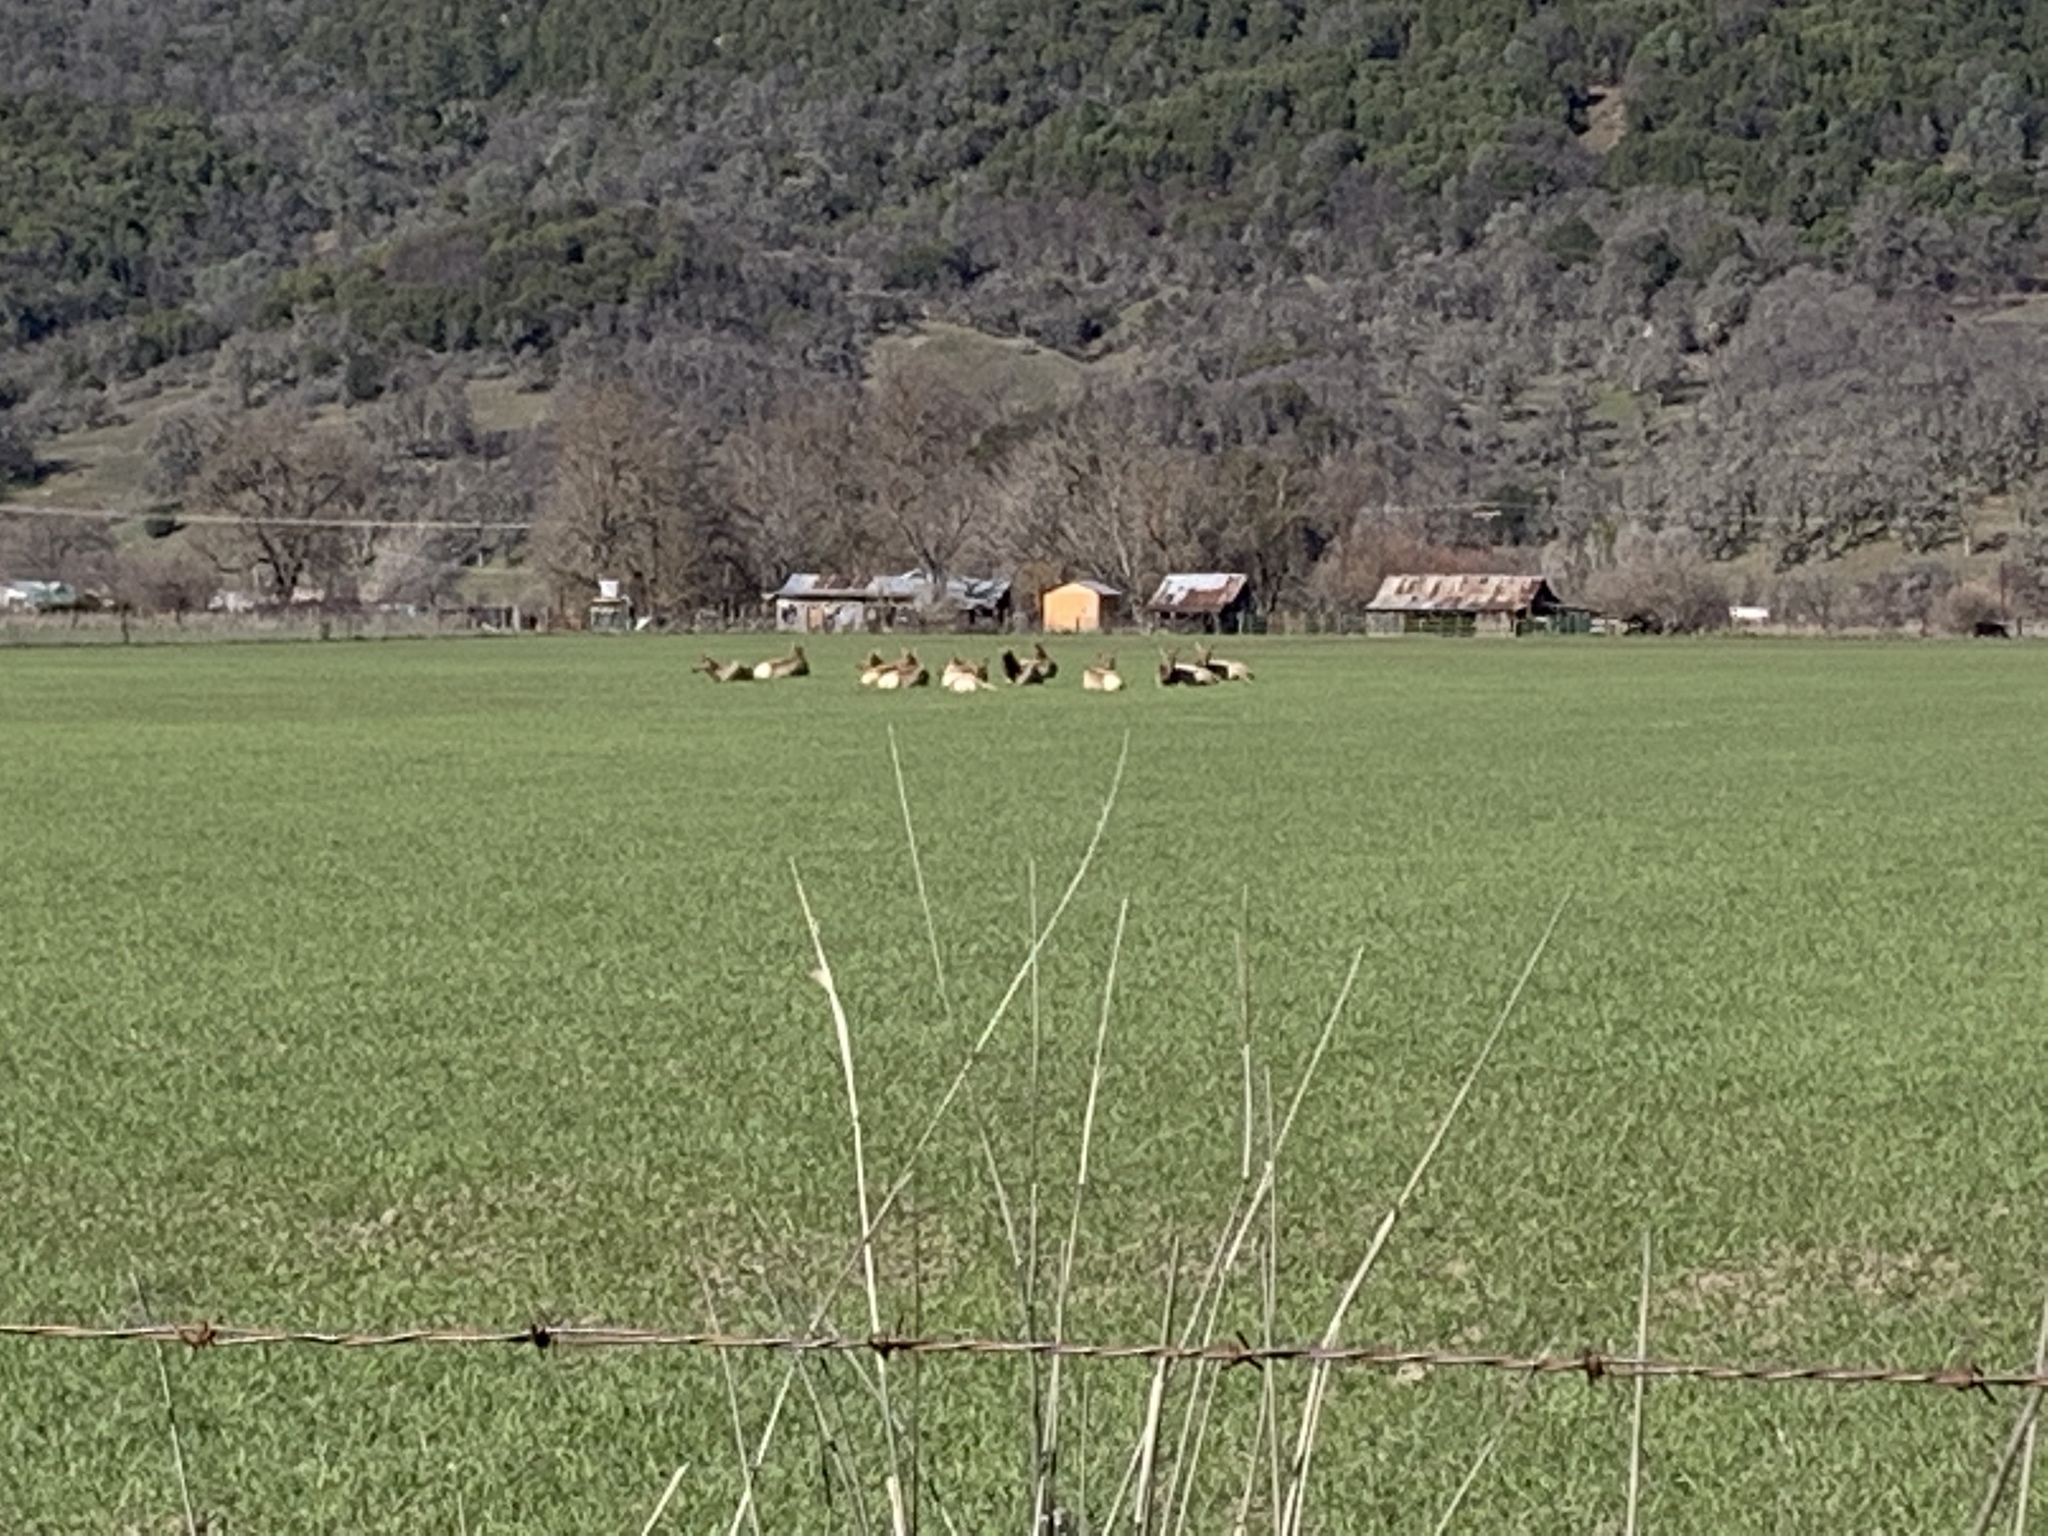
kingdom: Animalia
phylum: Chordata
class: Mammalia
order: Artiodactyla
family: Cervidae
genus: Cervus
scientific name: Cervus elaphus
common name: Red deer
